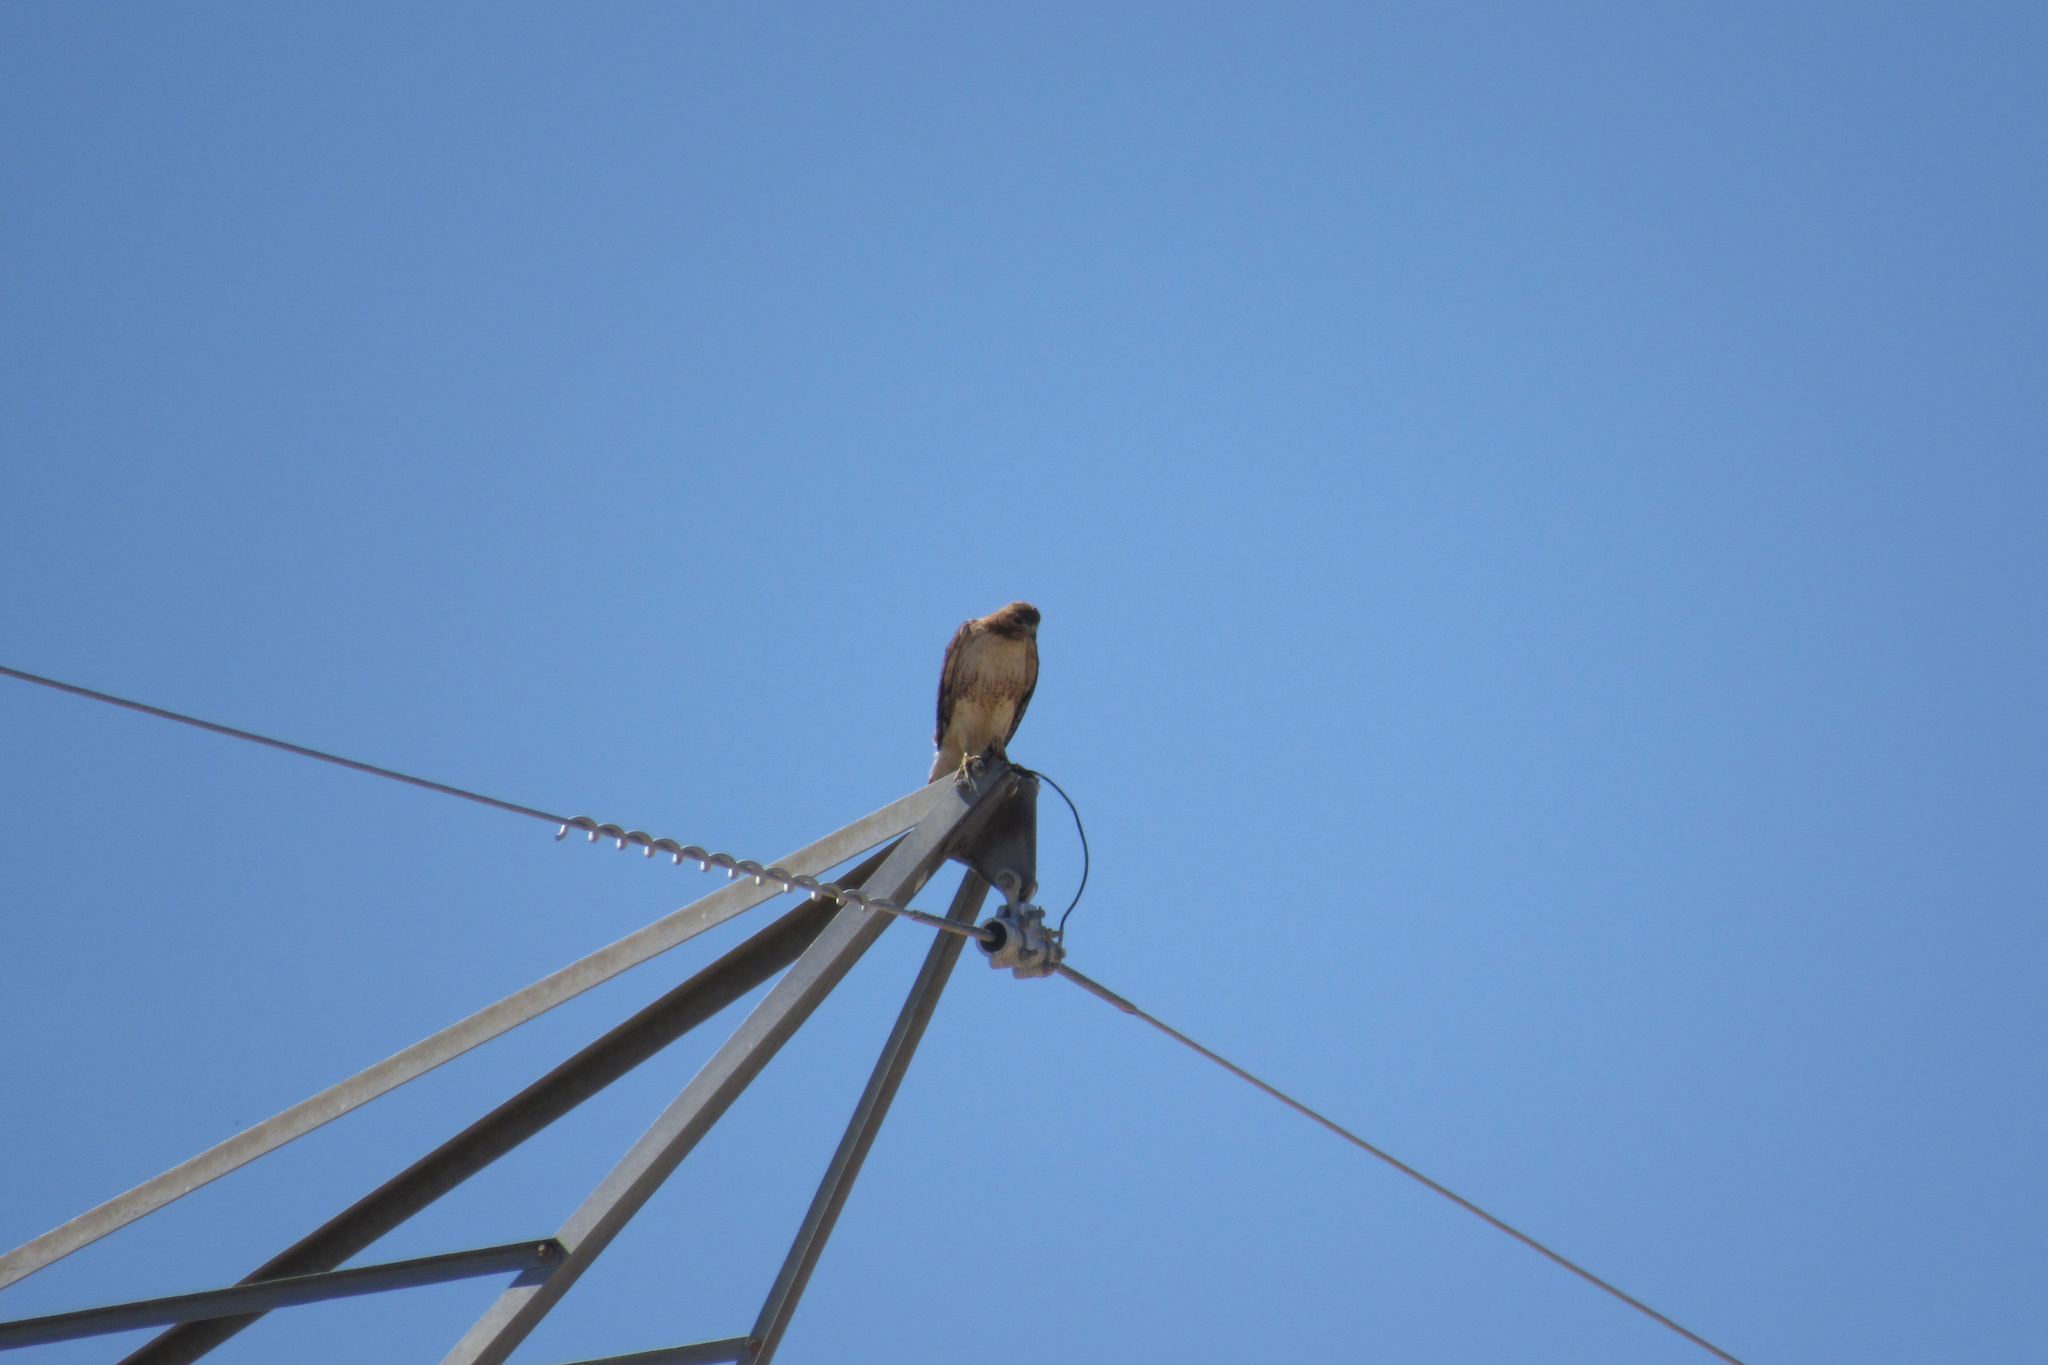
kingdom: Animalia
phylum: Chordata
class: Aves
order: Accipitriformes
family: Accipitridae
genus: Buteo
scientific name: Buteo jamaicensis
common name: Red-tailed hawk
